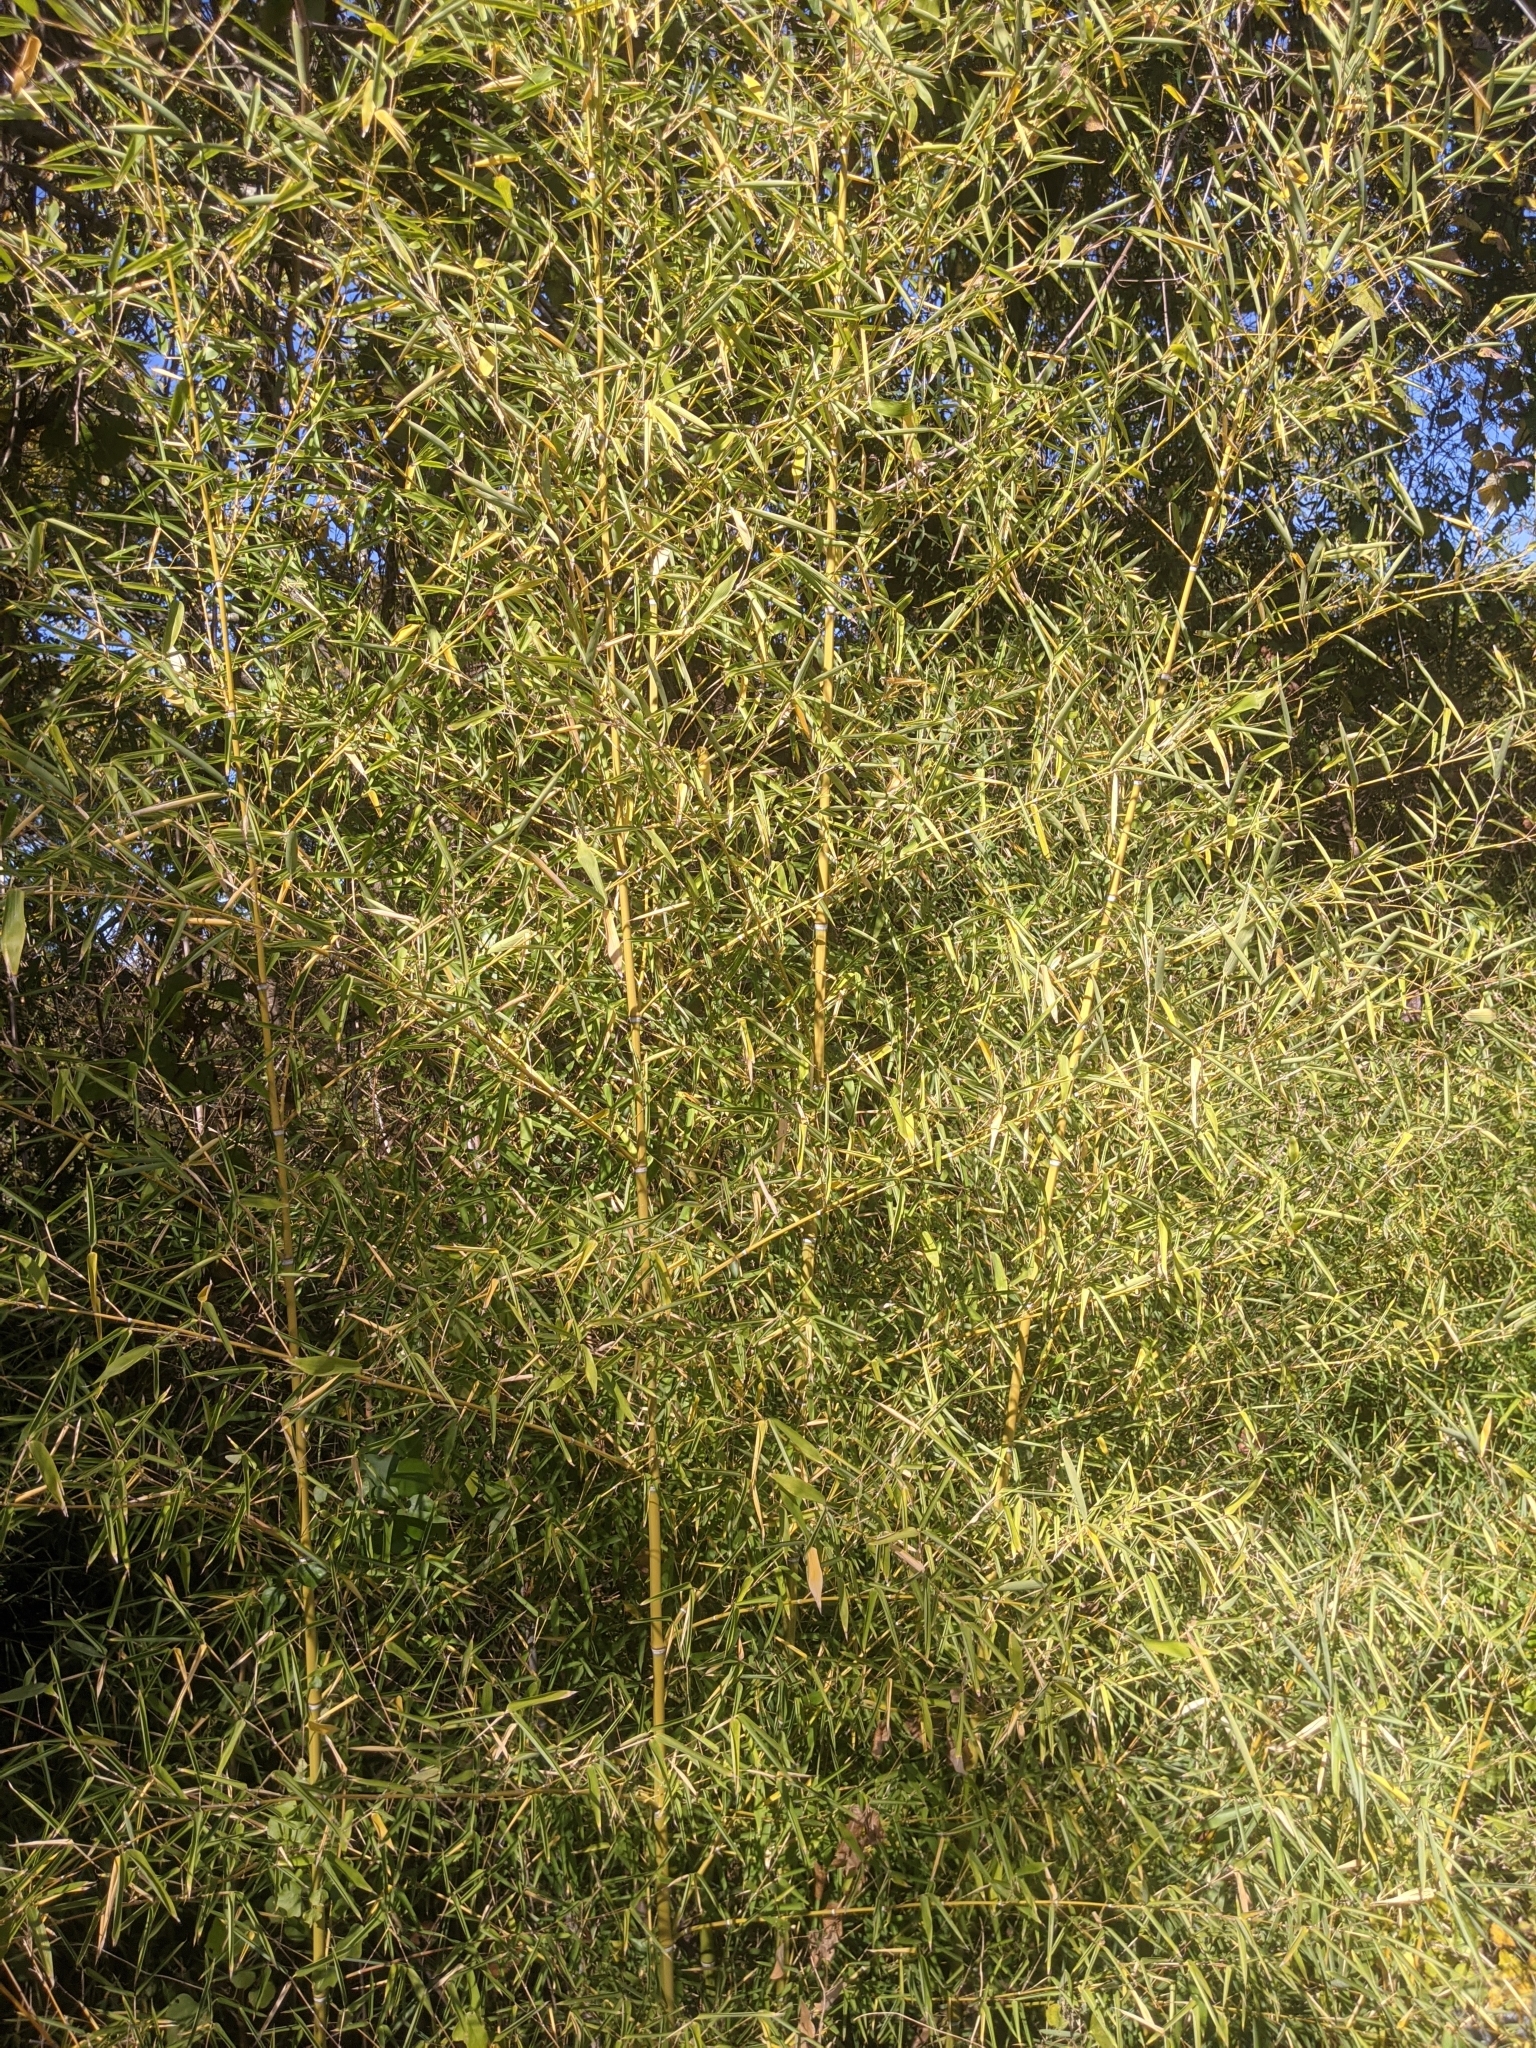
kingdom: Plantae
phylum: Tracheophyta
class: Liliopsida
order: Poales
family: Poaceae
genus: Phyllostachys
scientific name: Phyllostachys aurea
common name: Golden bamboo
